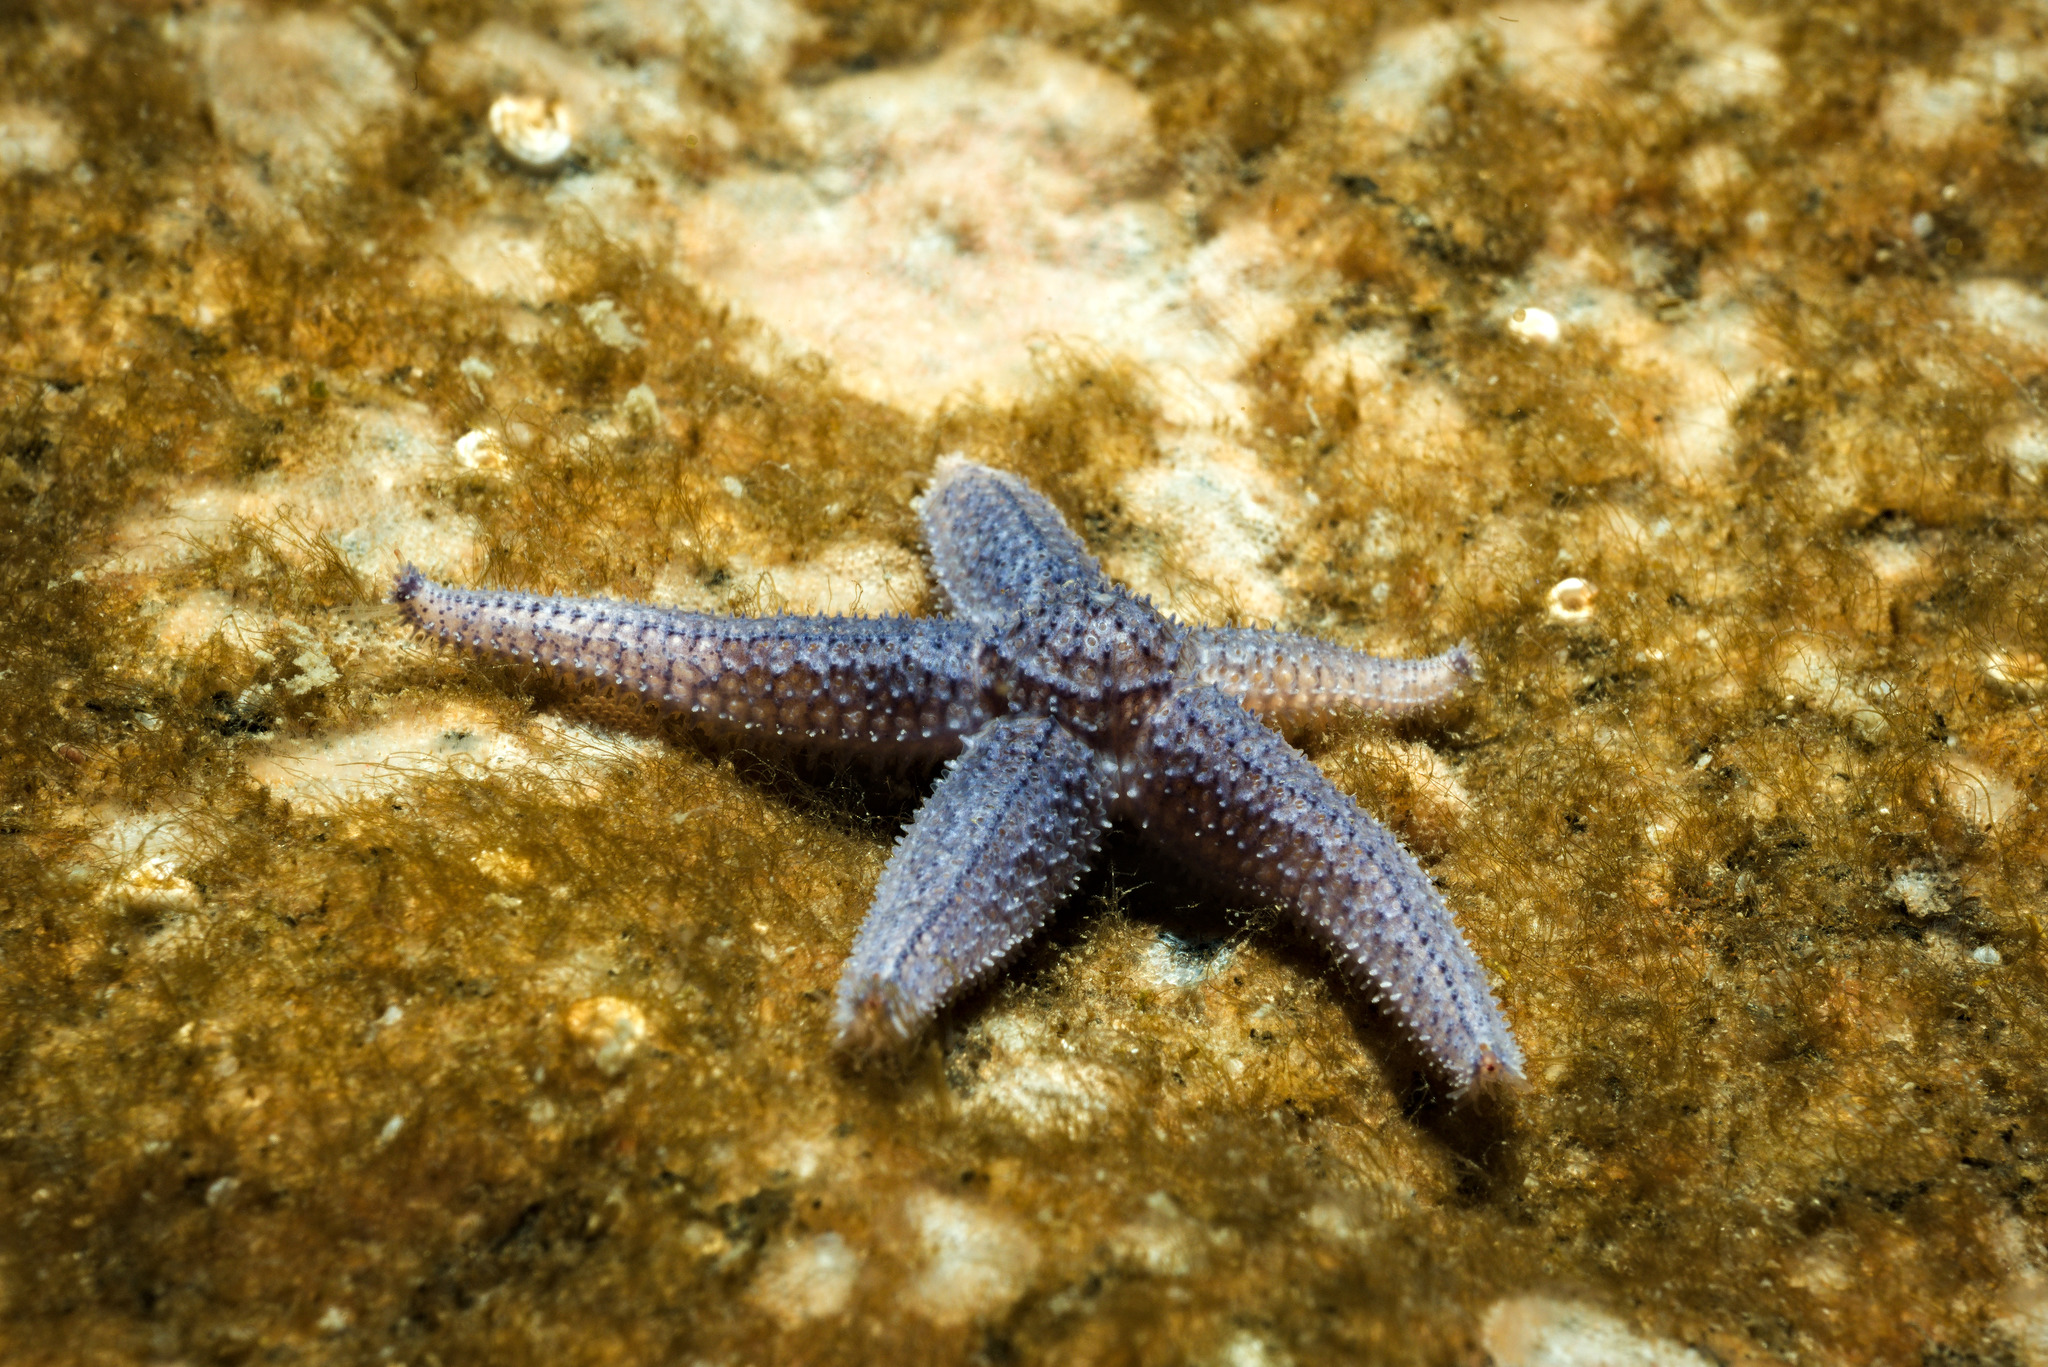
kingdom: Animalia
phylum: Echinodermata
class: Asteroidea
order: Forcipulatida
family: Asteriidae
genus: Asterias
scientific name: Asterias rubens
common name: Common starfish
